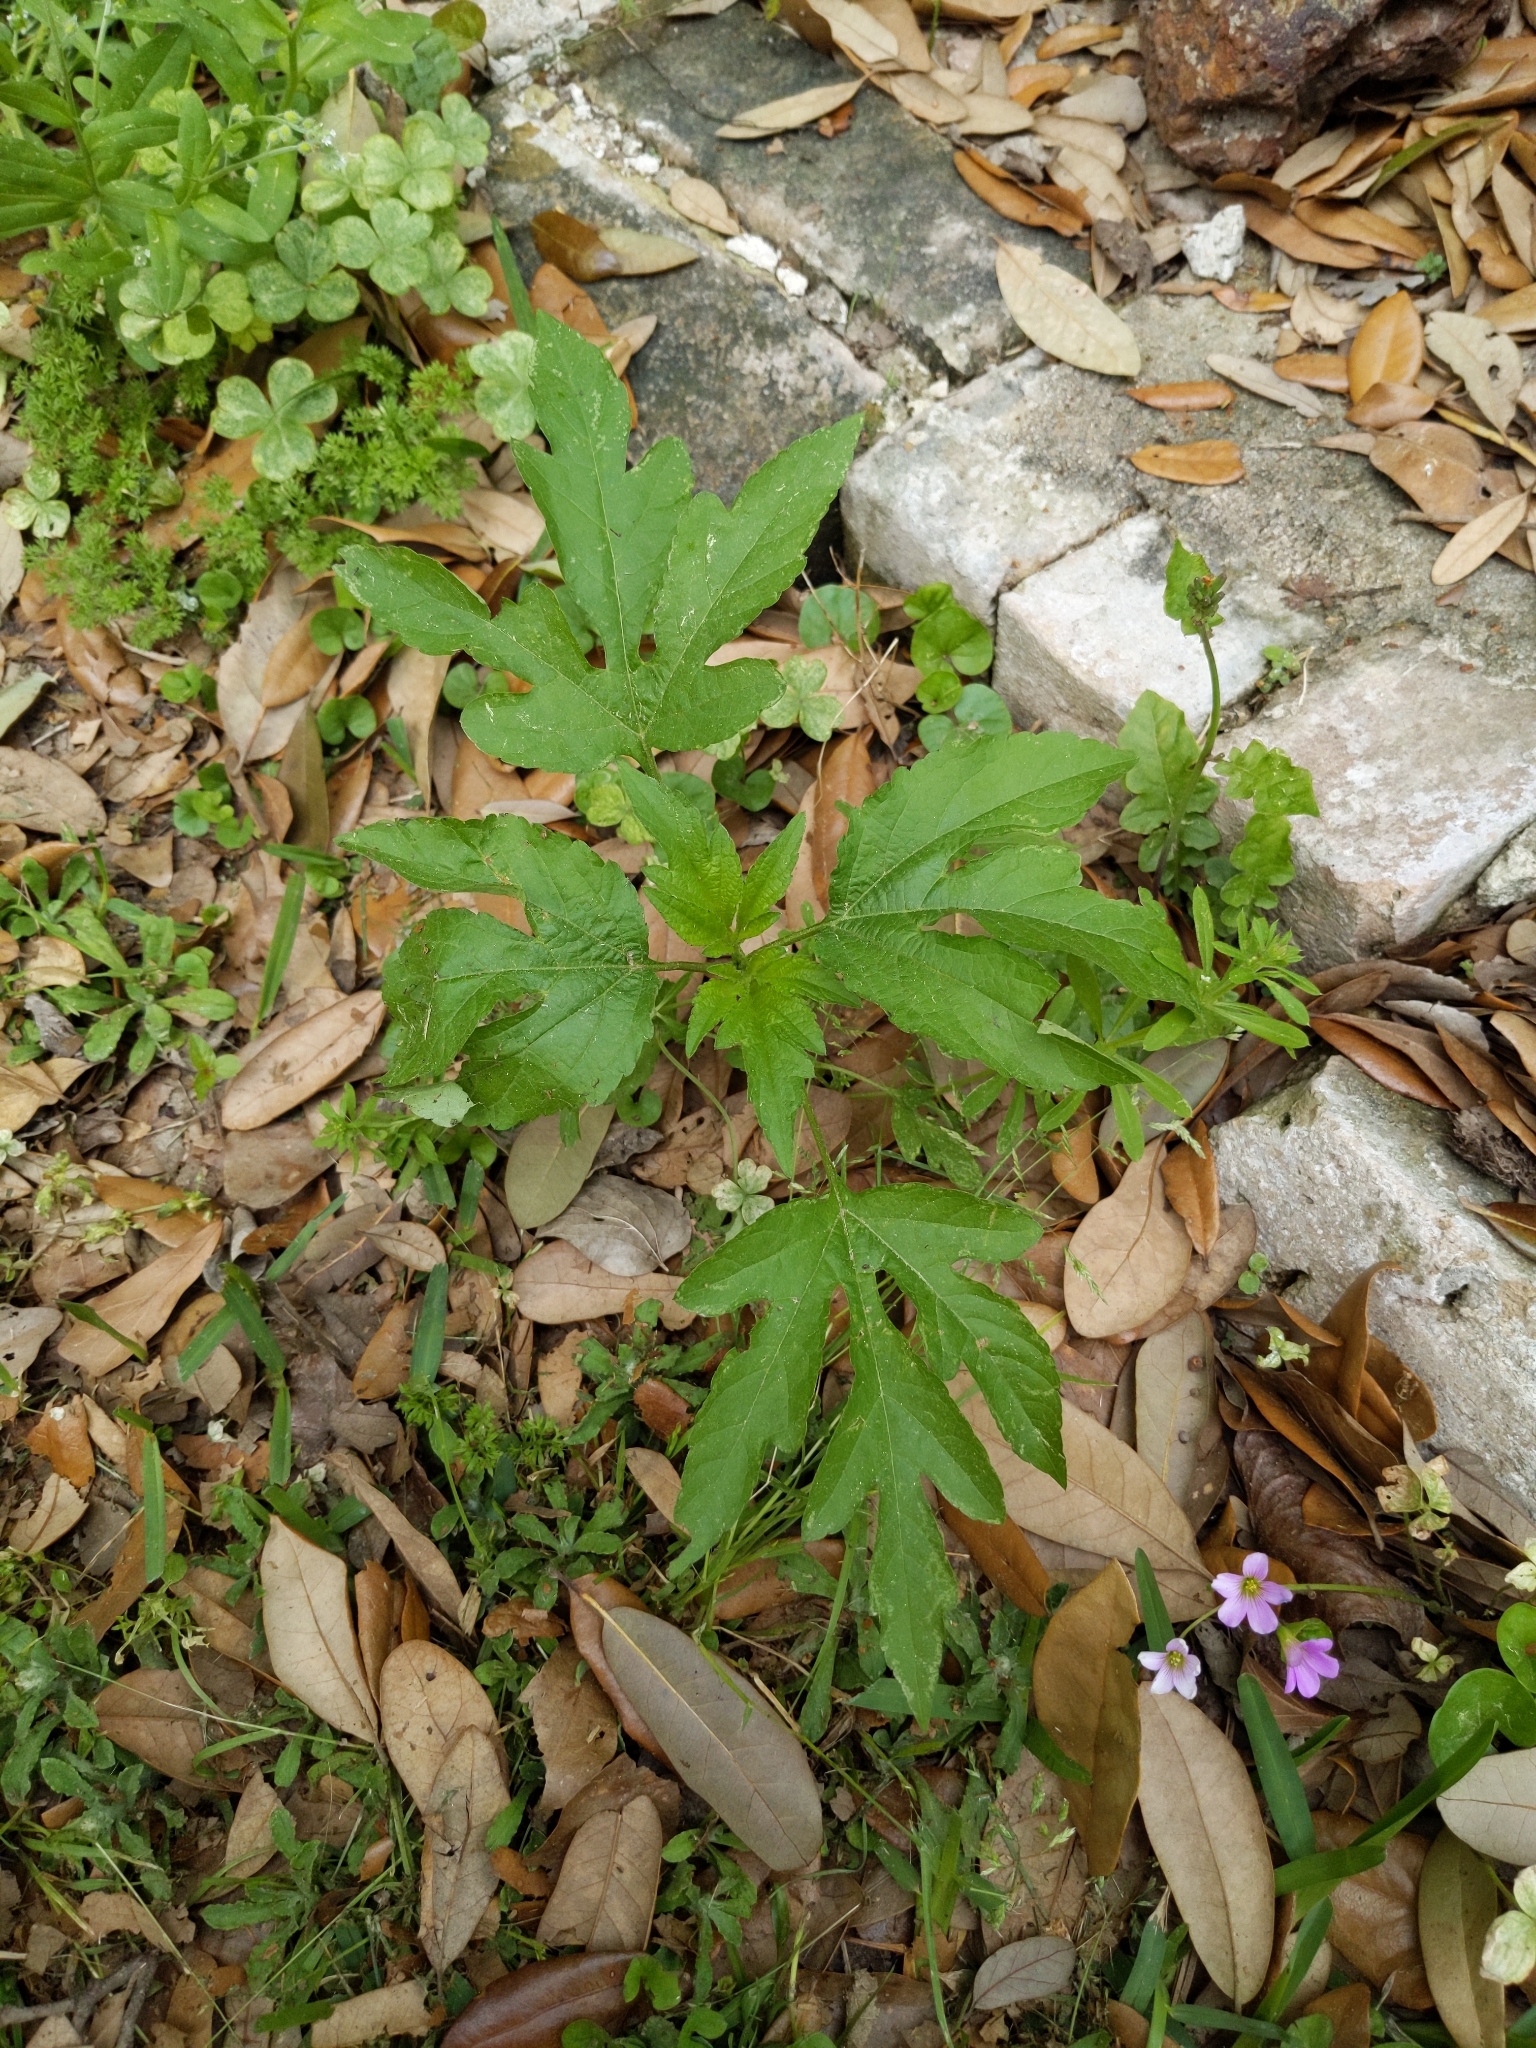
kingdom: Plantae
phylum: Tracheophyta
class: Magnoliopsida
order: Asterales
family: Asteraceae
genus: Ambrosia
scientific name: Ambrosia trifida
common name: Giant ragweed
